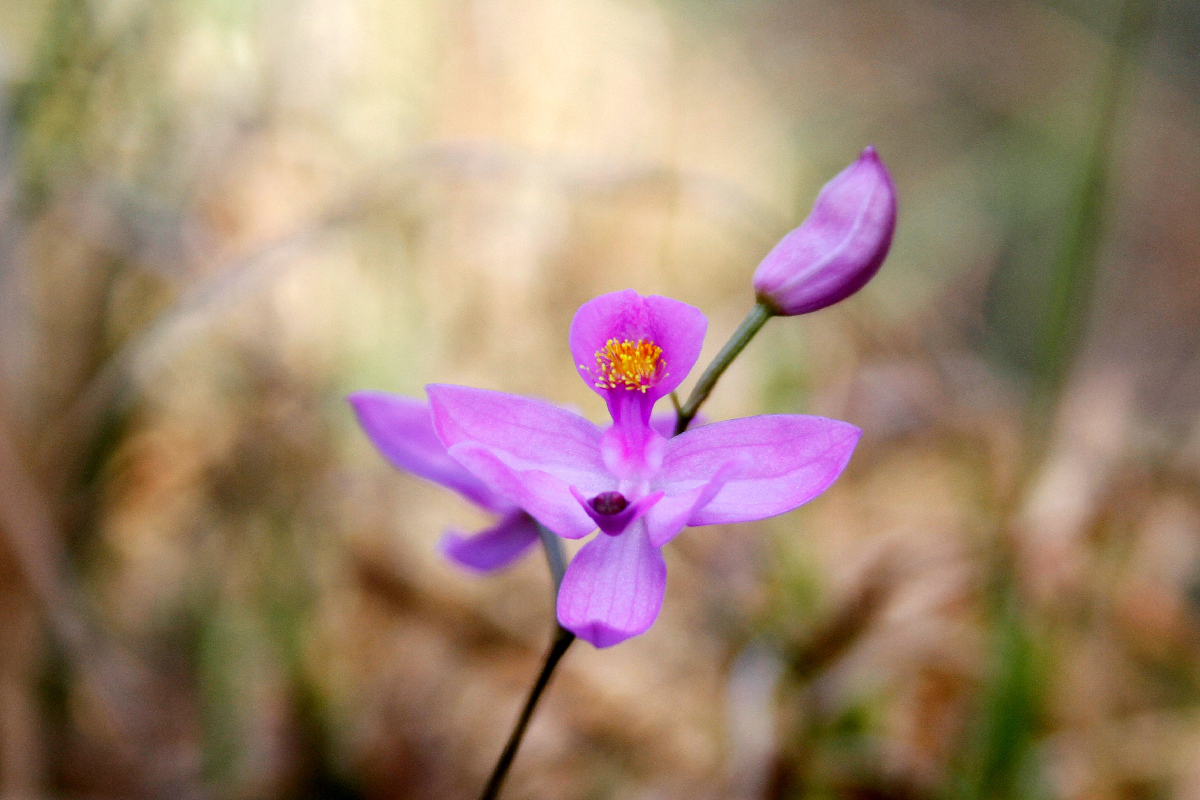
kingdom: Plantae
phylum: Tracheophyta
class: Liliopsida
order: Asparagales
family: Orchidaceae
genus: Calopogon
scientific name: Calopogon barbatus
